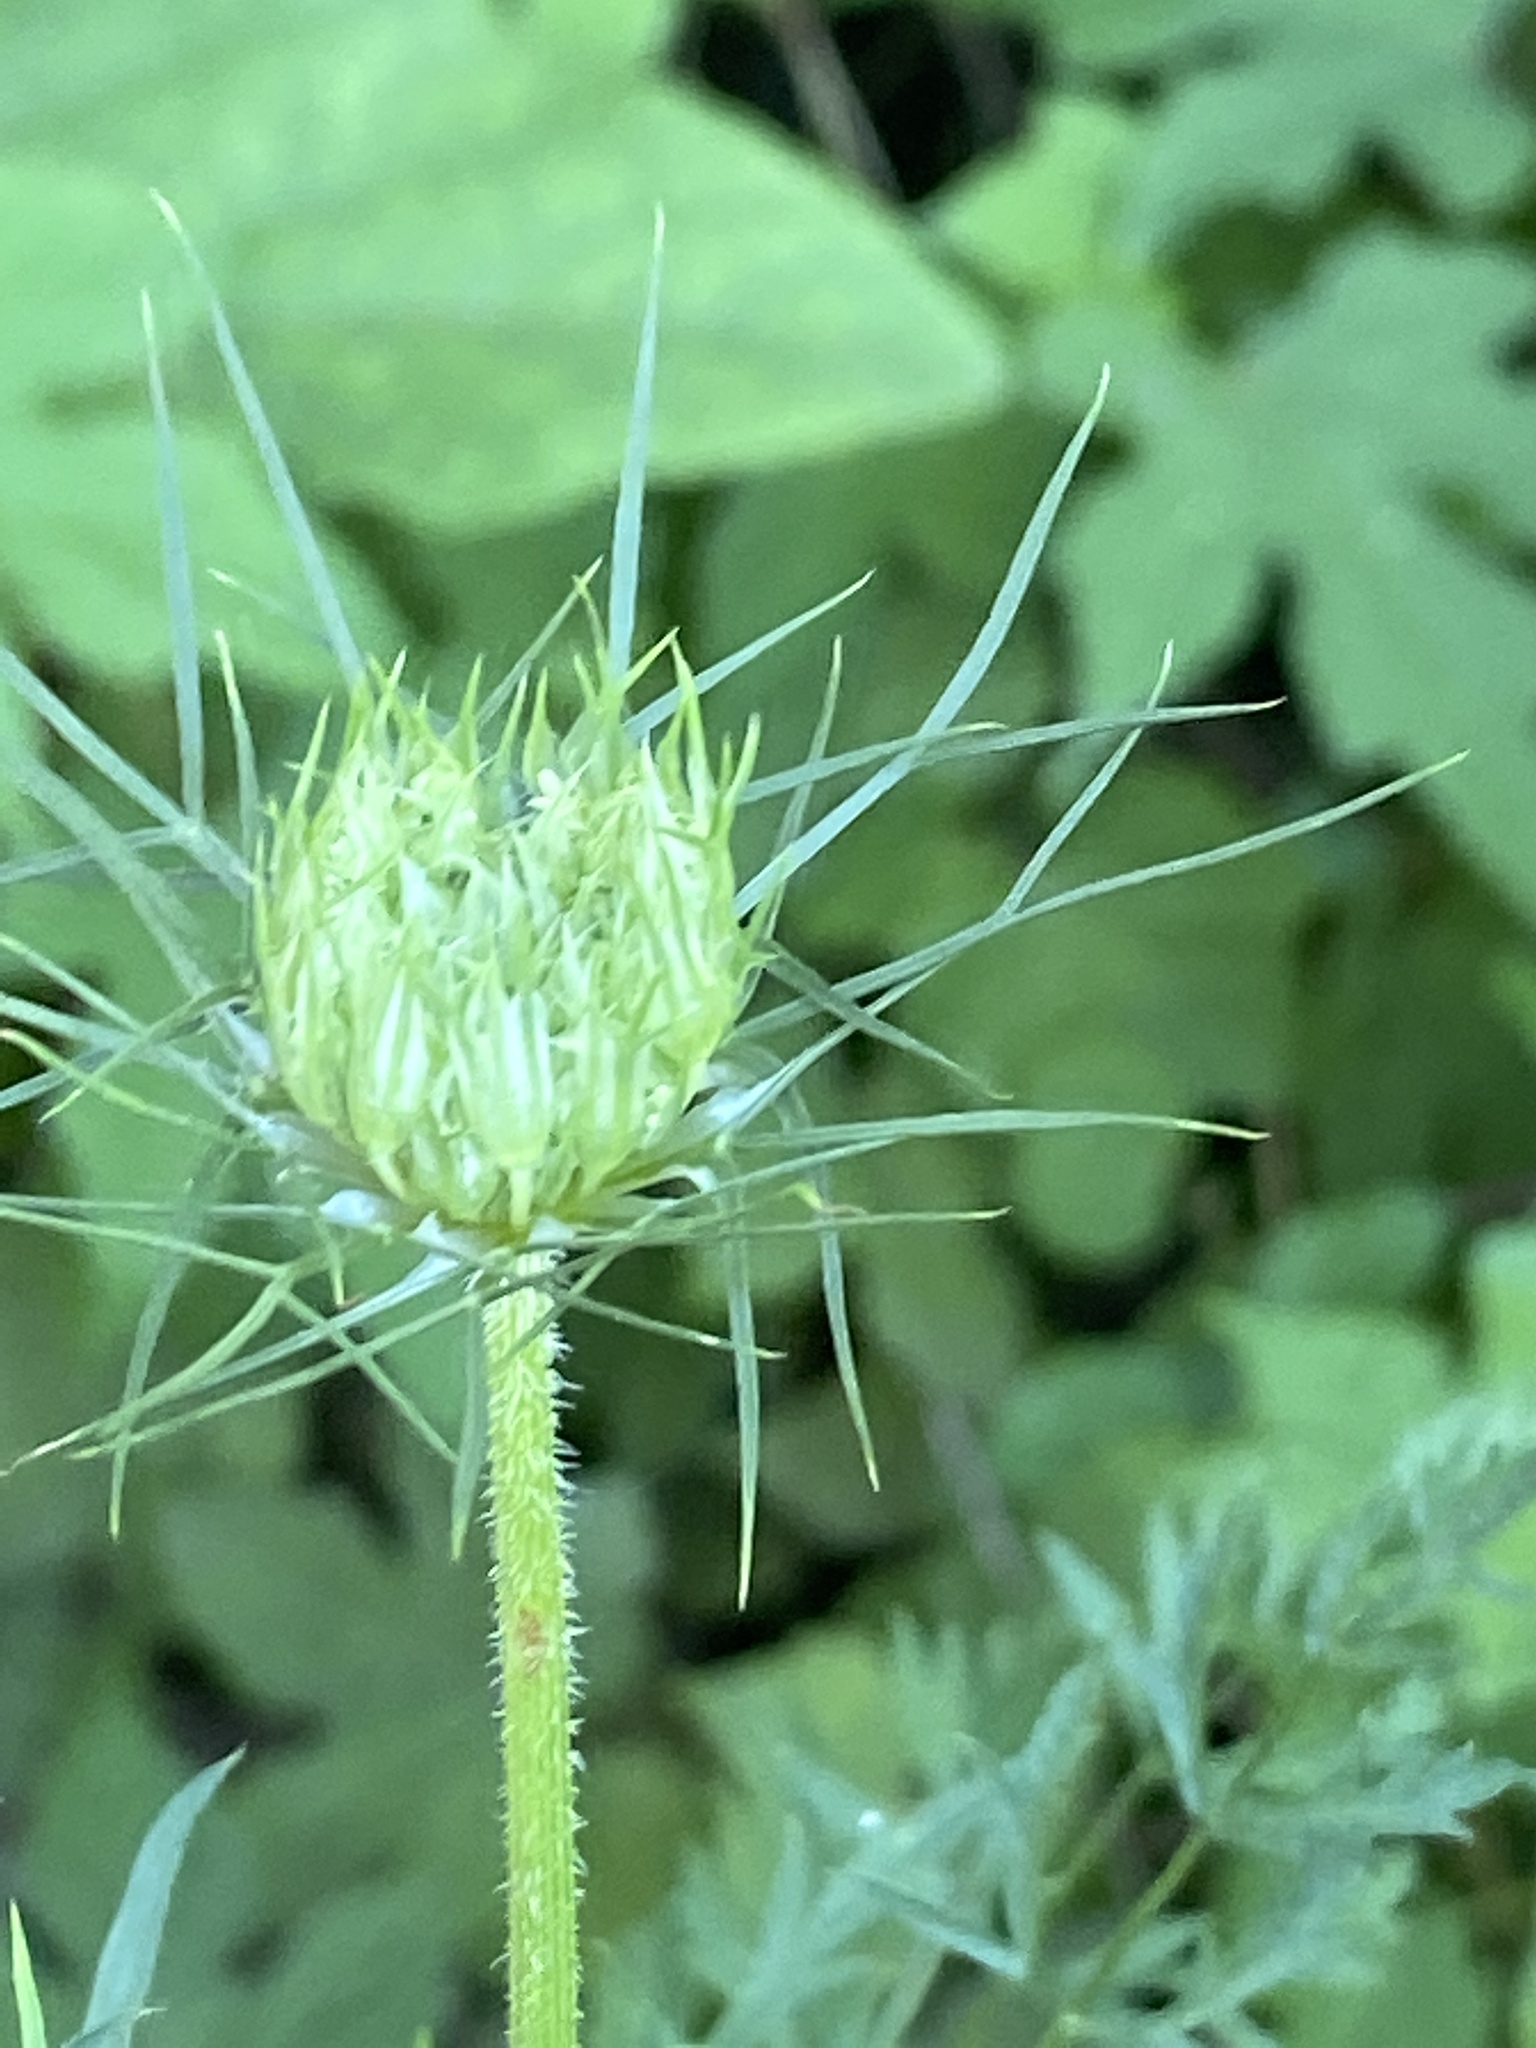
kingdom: Plantae
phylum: Tracheophyta
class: Magnoliopsida
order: Apiales
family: Apiaceae
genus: Daucus
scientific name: Daucus carota
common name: Wild carrot
